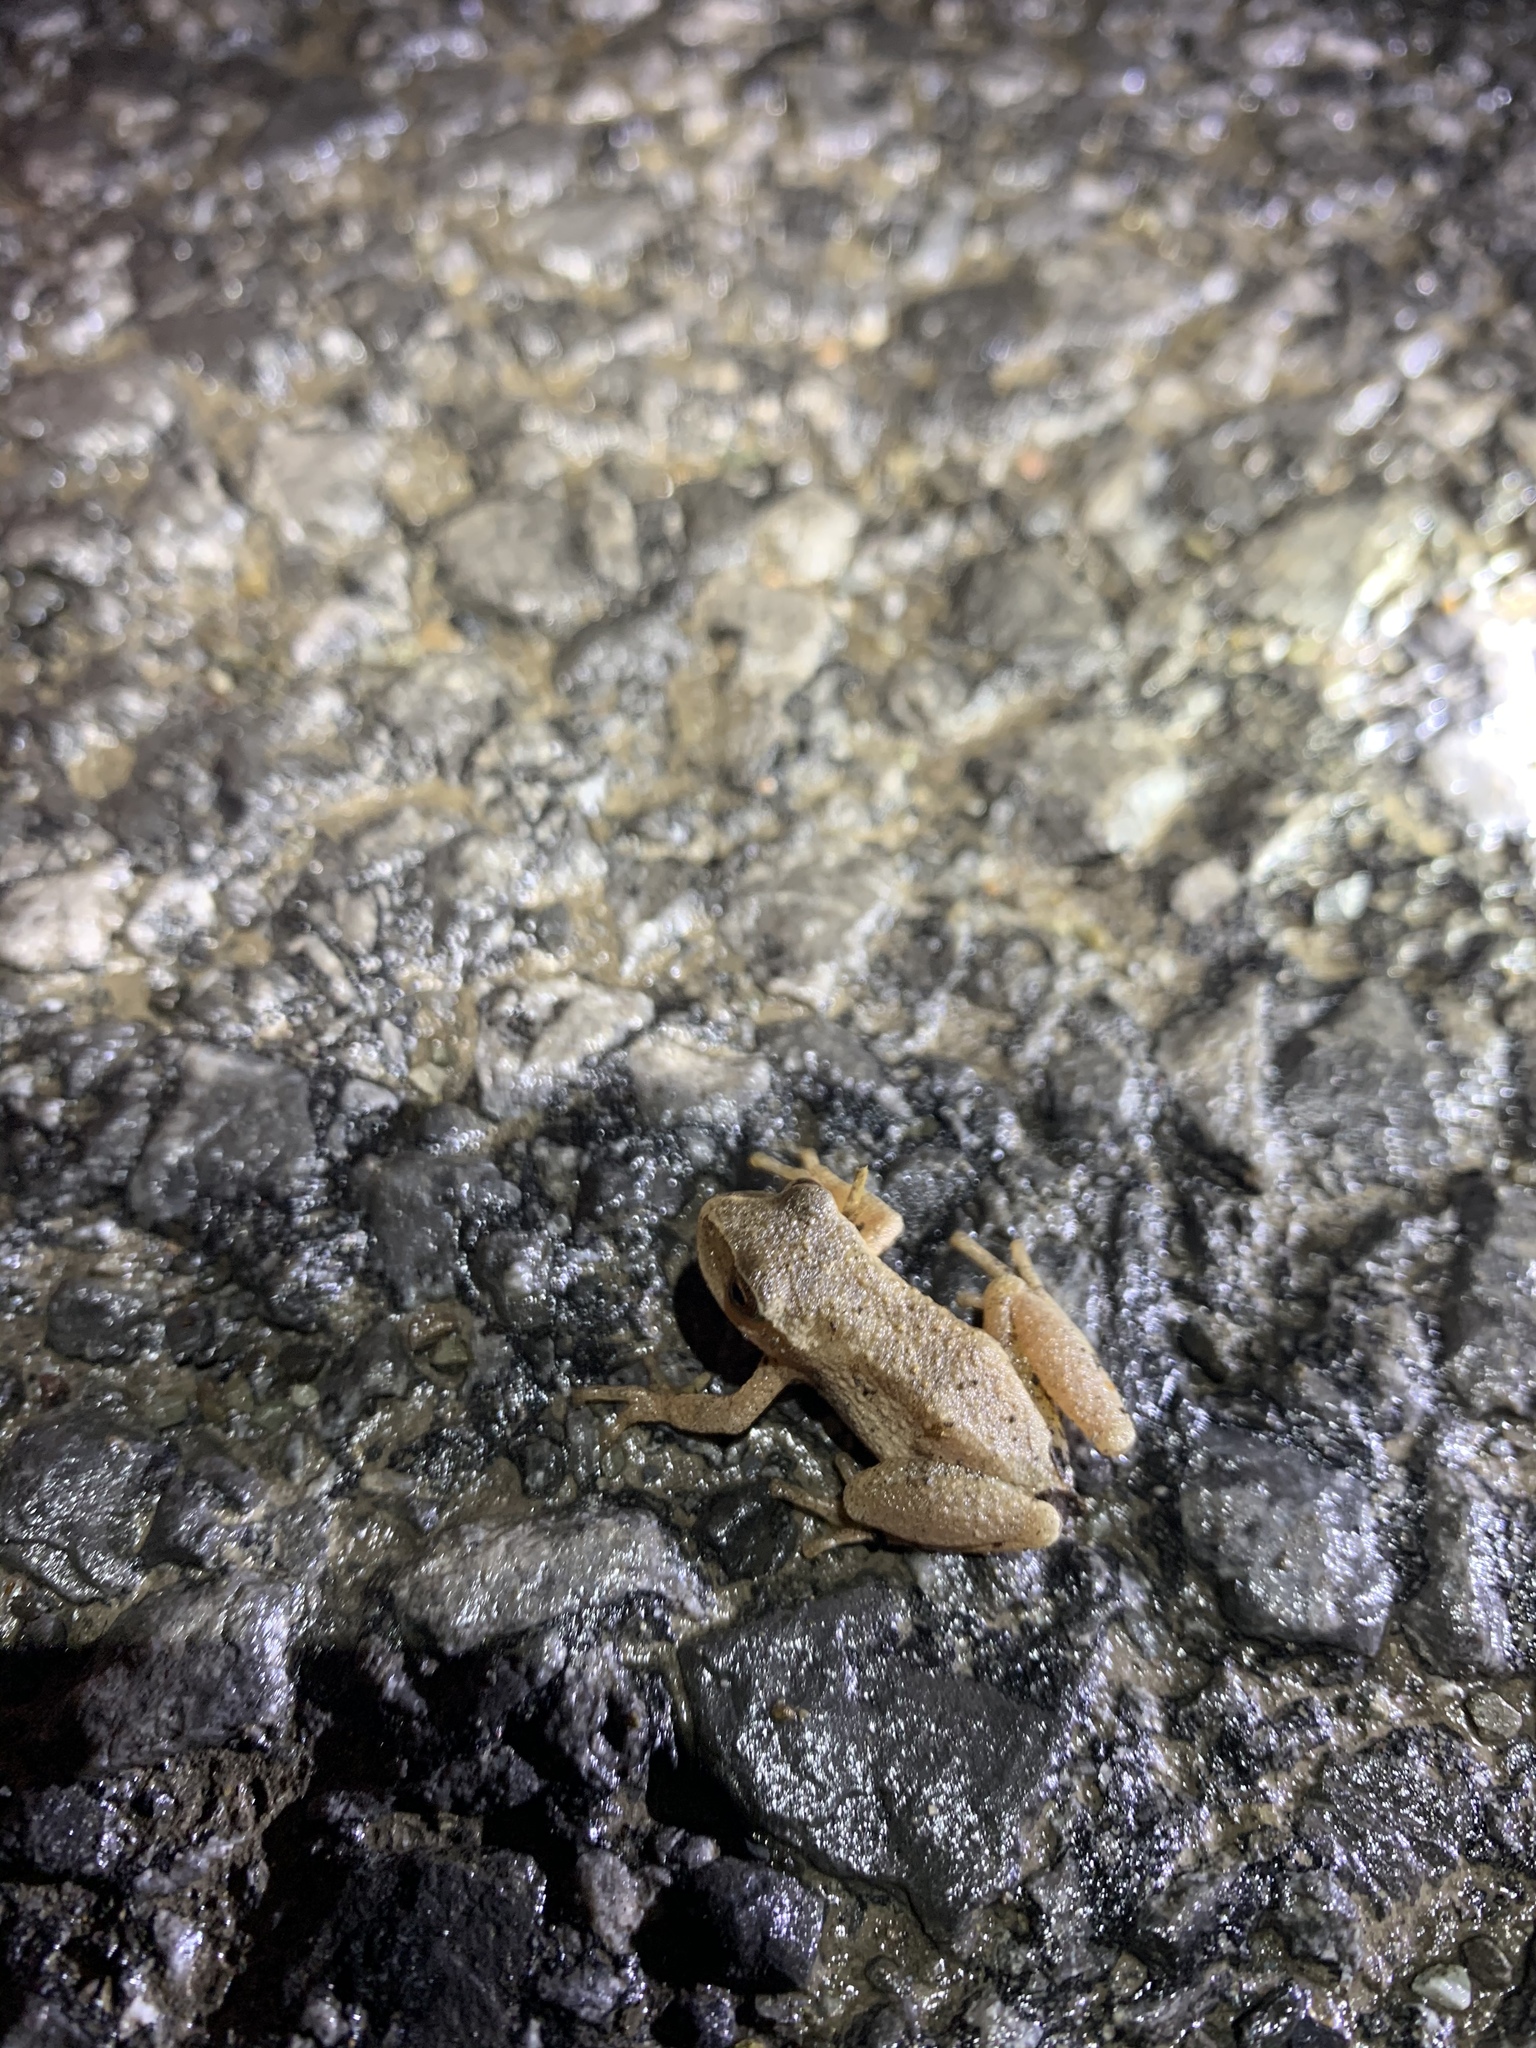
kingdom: Animalia
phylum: Chordata
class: Amphibia
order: Anura
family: Hylidae
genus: Pseudacris
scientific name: Pseudacris crucifer
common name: Spring peeper
